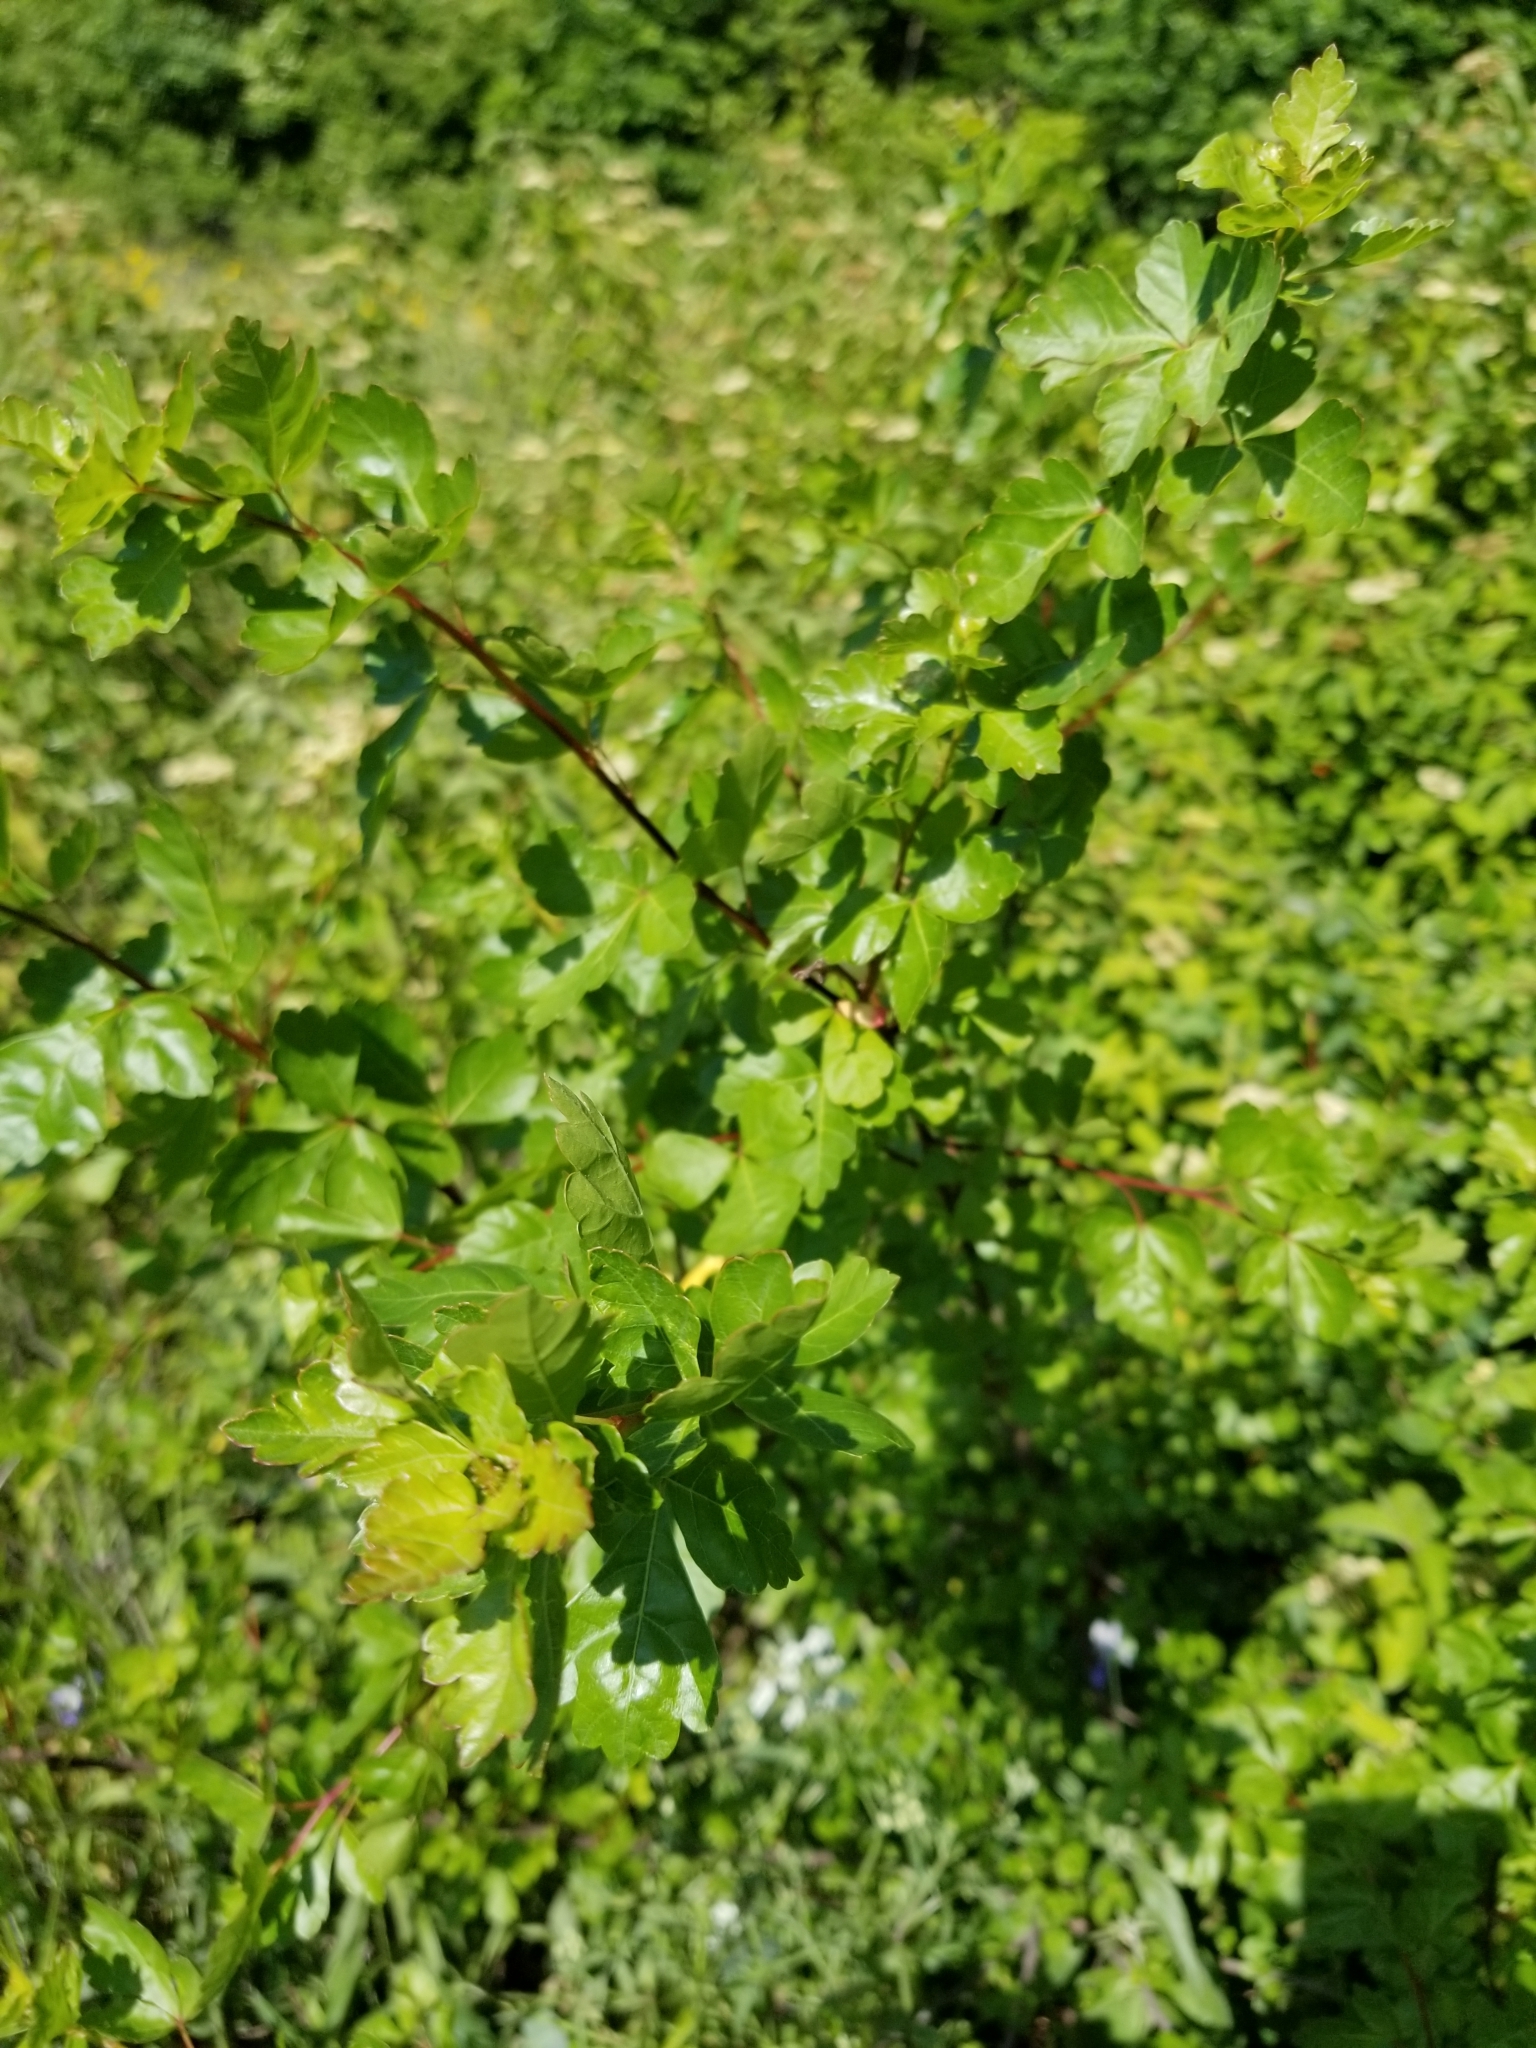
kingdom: Plantae
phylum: Tracheophyta
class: Magnoliopsida
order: Cornales
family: Cornaceae
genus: Cornus
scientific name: Cornus drummondii
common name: Rough-leaf dogwood
